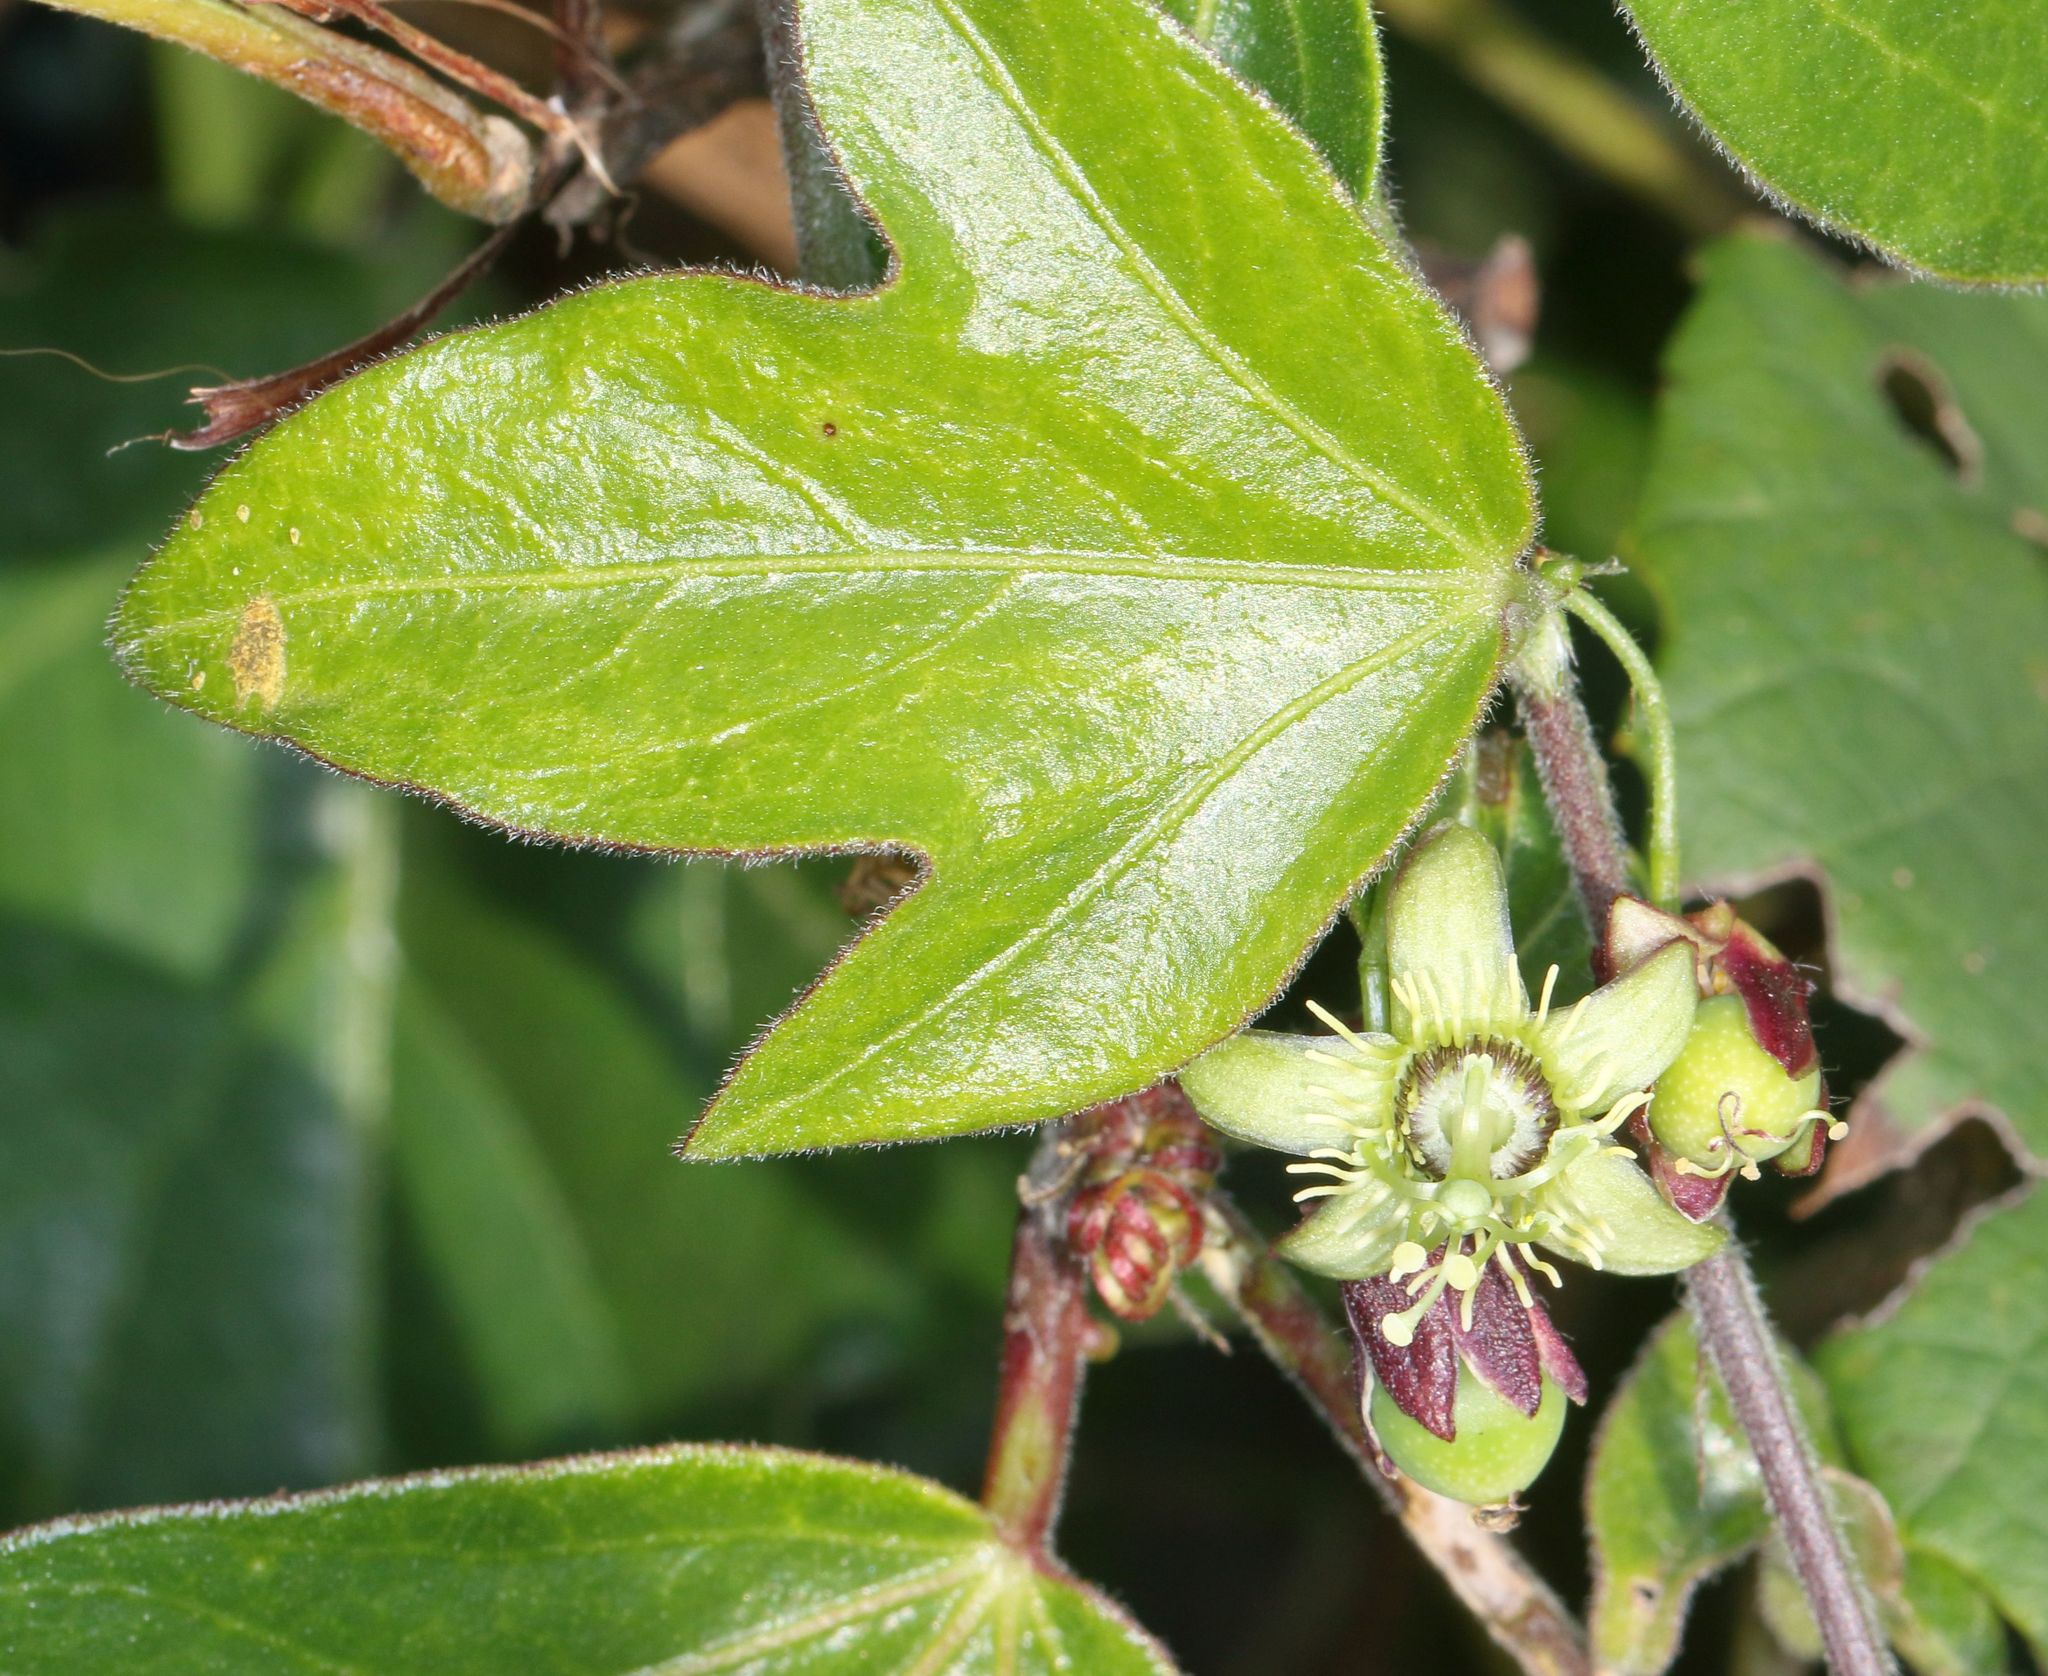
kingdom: Plantae
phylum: Tracheophyta
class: Magnoliopsida
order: Malpighiales
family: Passifloraceae
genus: Passiflora
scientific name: Passiflora suberosa
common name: Wild passionfruit
